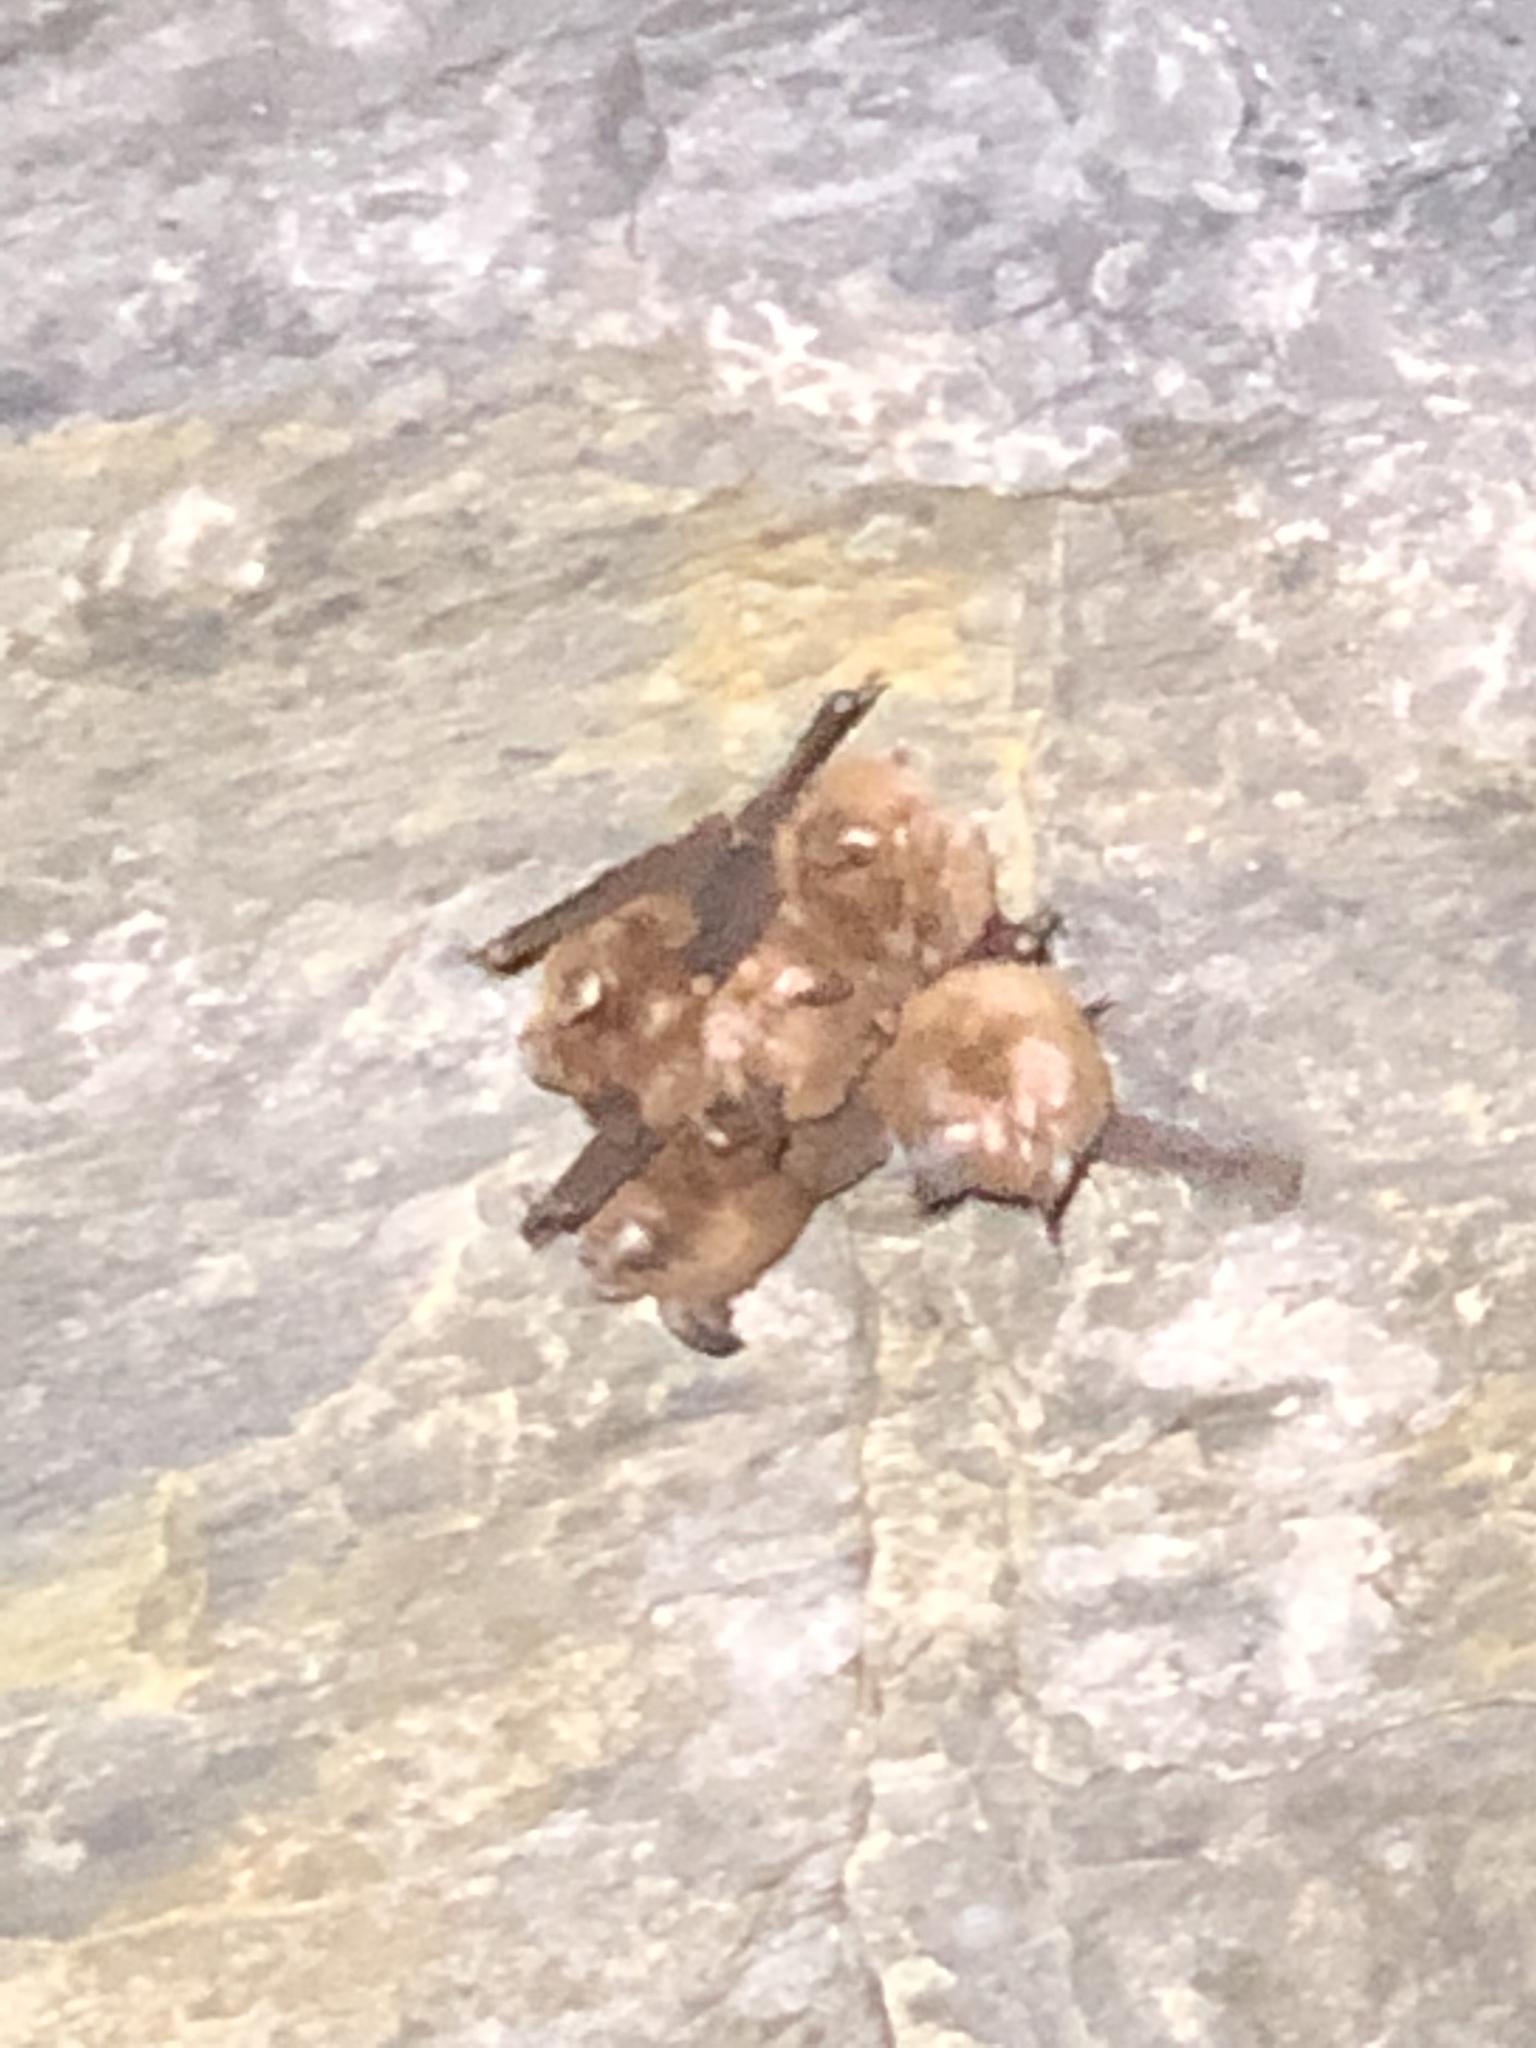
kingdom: Animalia
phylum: Chordata
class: Mammalia
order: Chiroptera
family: Rhinolophidae
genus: Rhinolophus
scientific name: Rhinolophus monoceros
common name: Formosan lesser horseshoe bat
